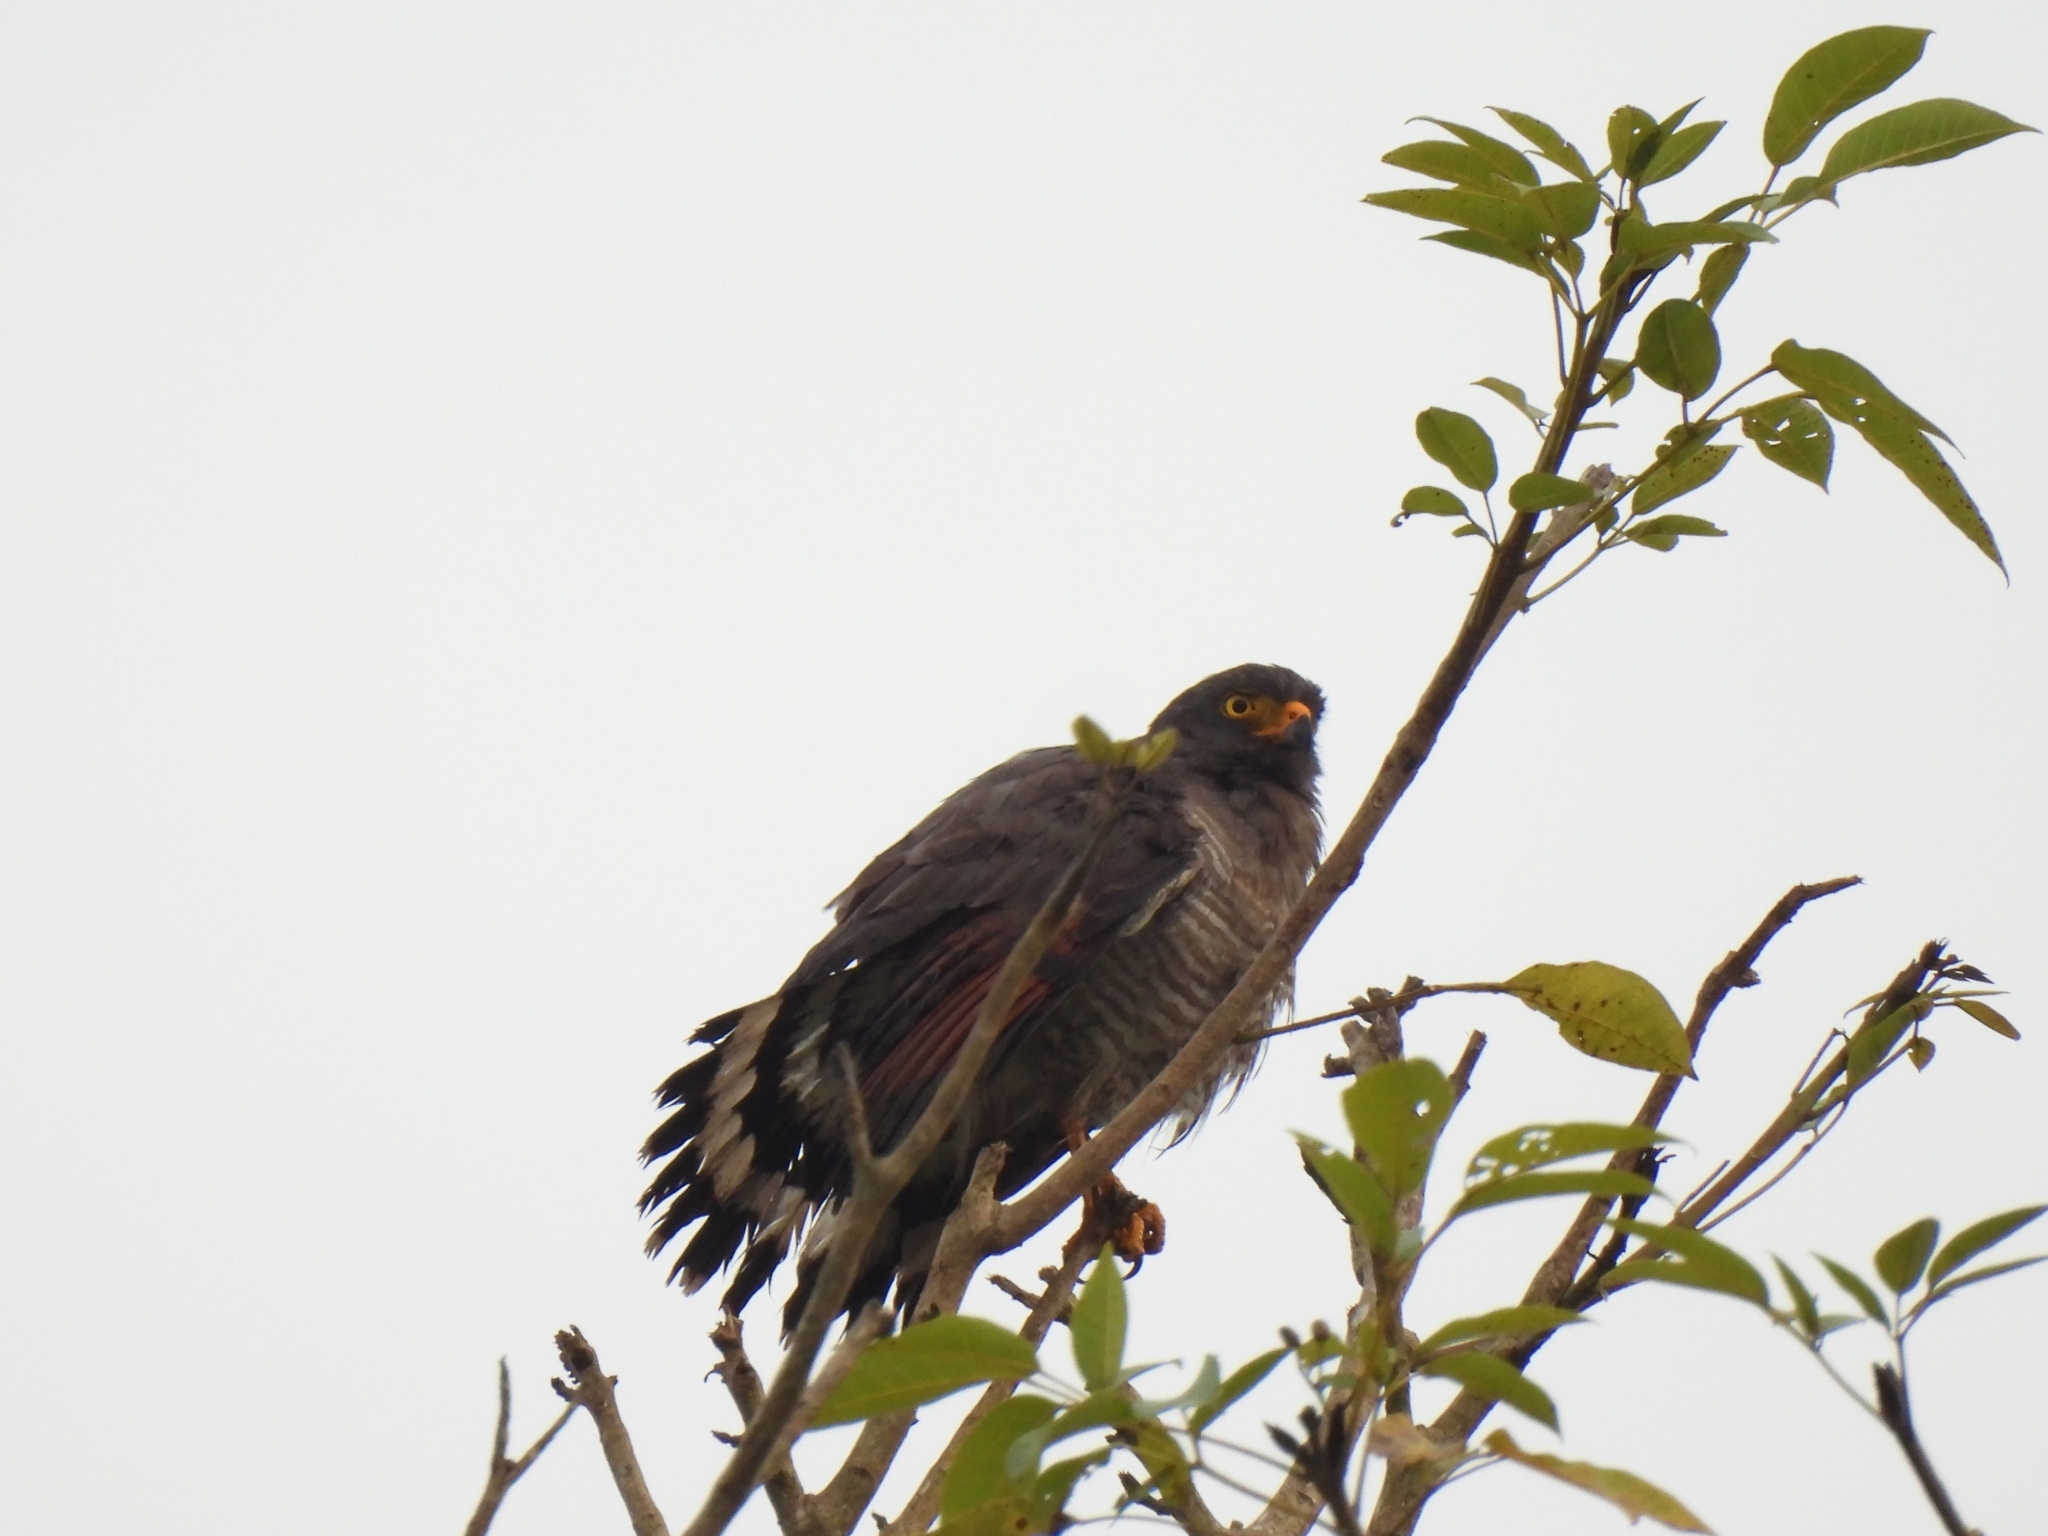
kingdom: Animalia
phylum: Chordata
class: Aves
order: Accipitriformes
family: Accipitridae
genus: Rupornis
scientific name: Rupornis magnirostris
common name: Roadside hawk
